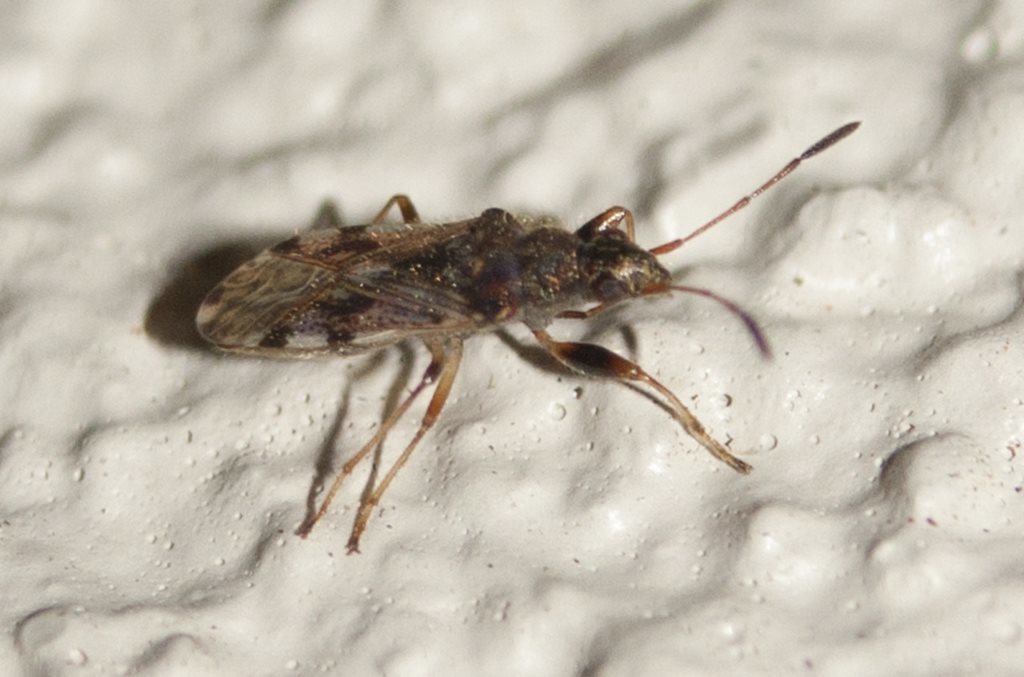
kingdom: Animalia
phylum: Arthropoda
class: Insecta
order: Hemiptera
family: Rhyparochromidae
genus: Remaudiereana
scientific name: Remaudiereana inornatus
